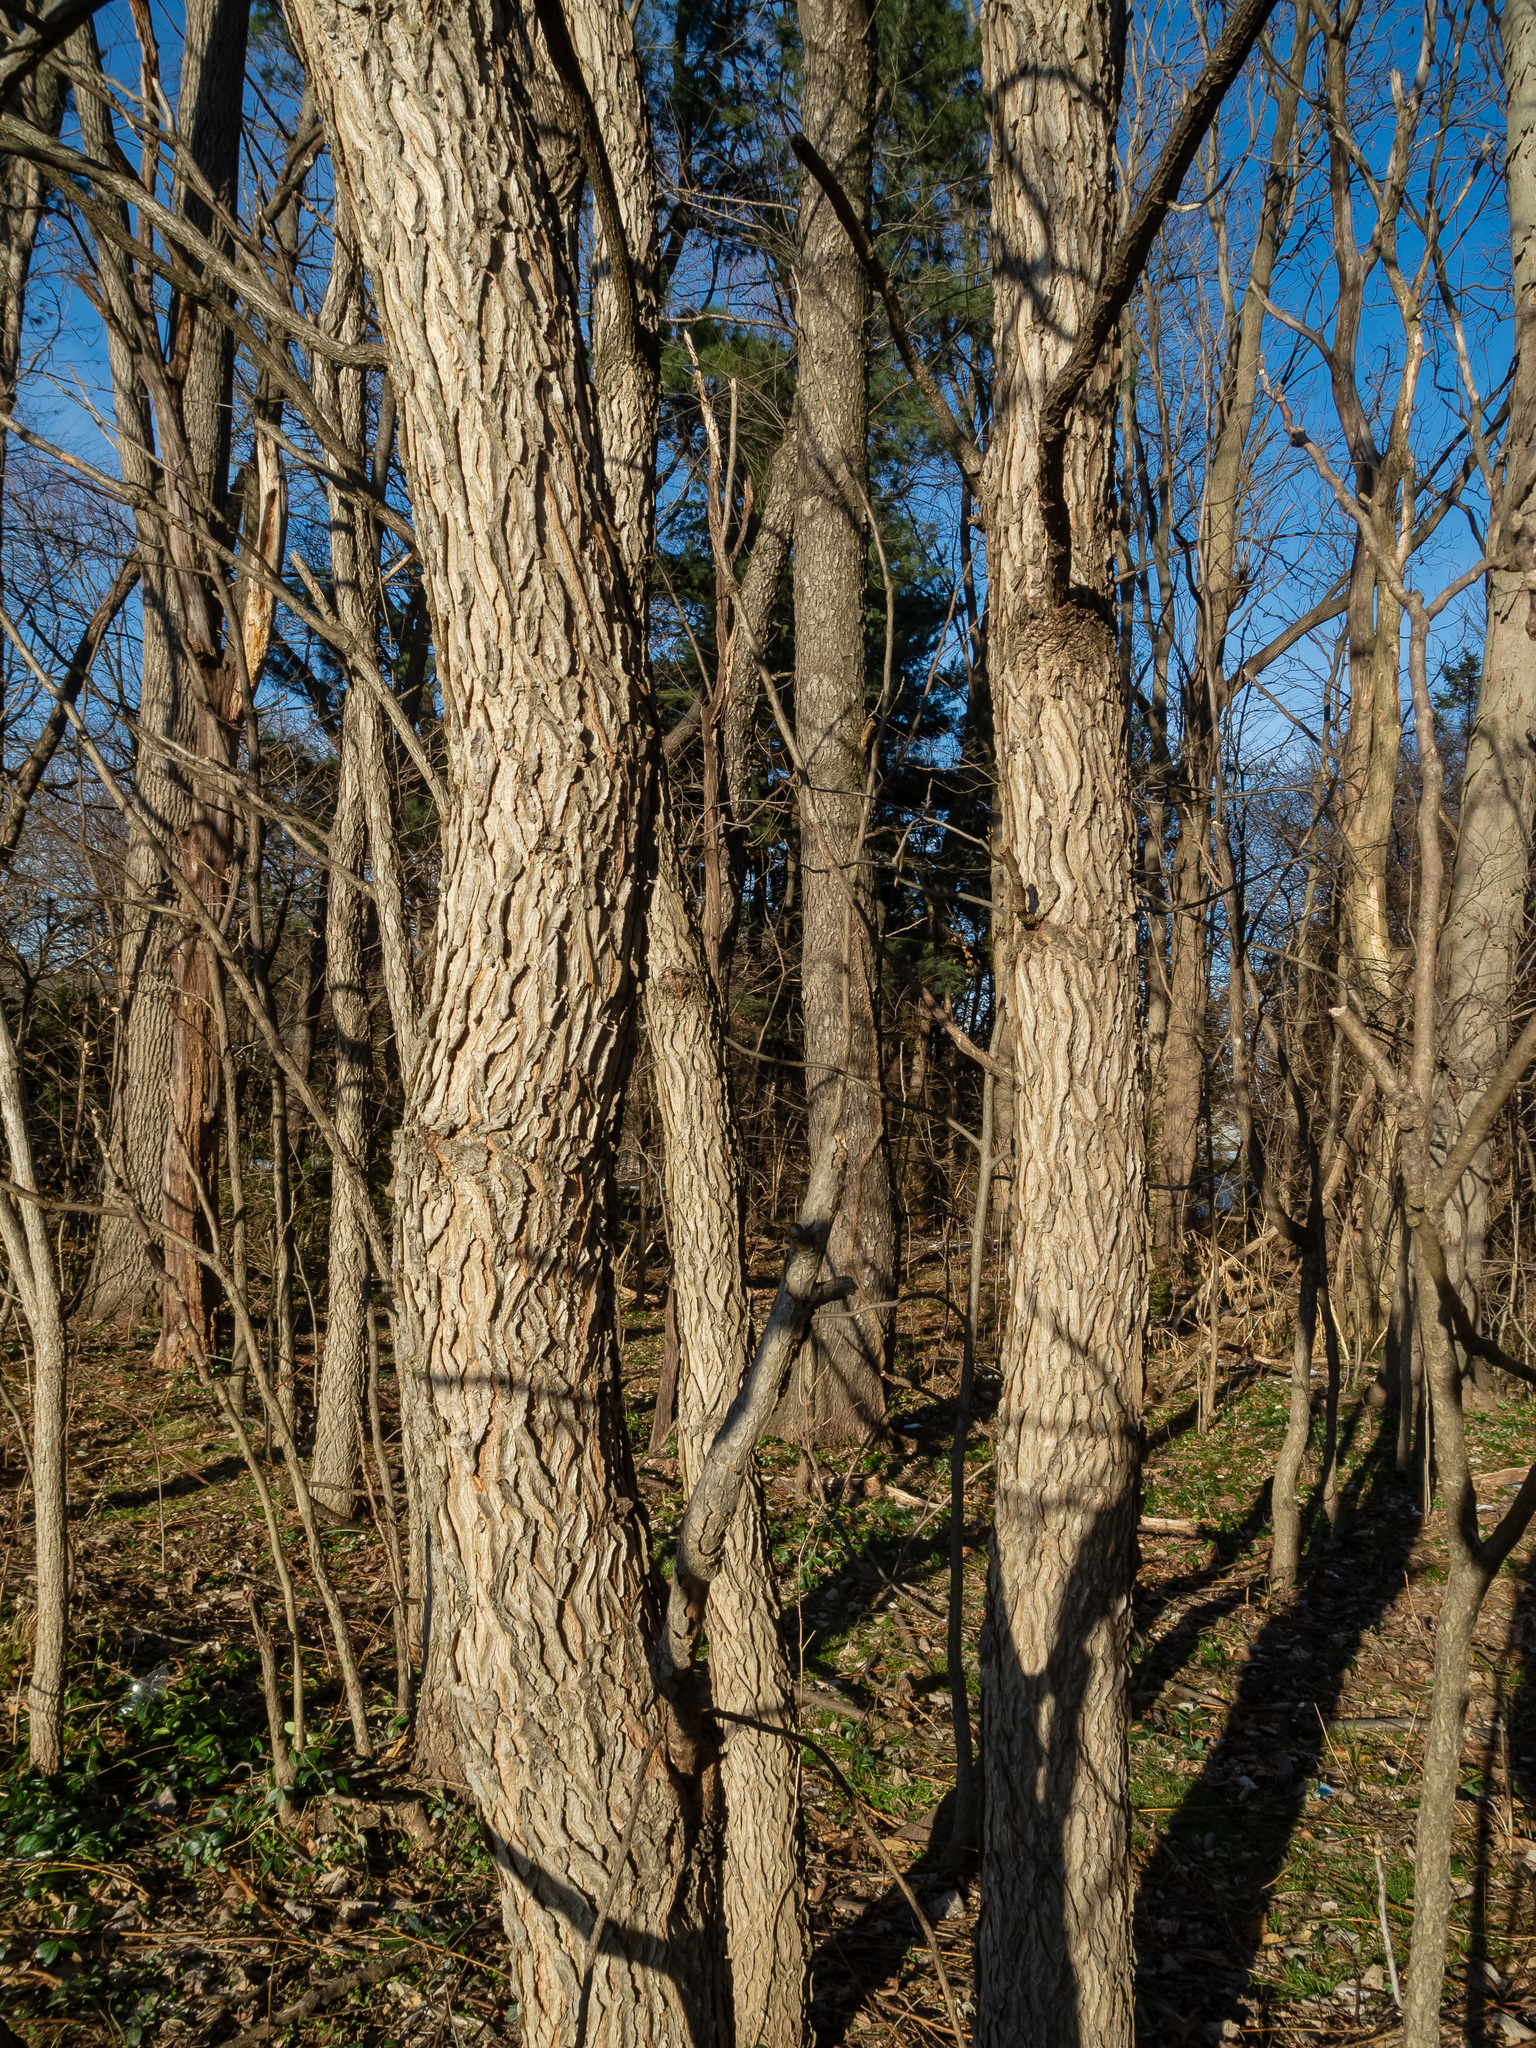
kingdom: Plantae
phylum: Tracheophyta
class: Magnoliopsida
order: Fabales
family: Fabaceae
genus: Gymnocladus
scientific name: Gymnocladus dioicus
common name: Kentucky coffee-tree
